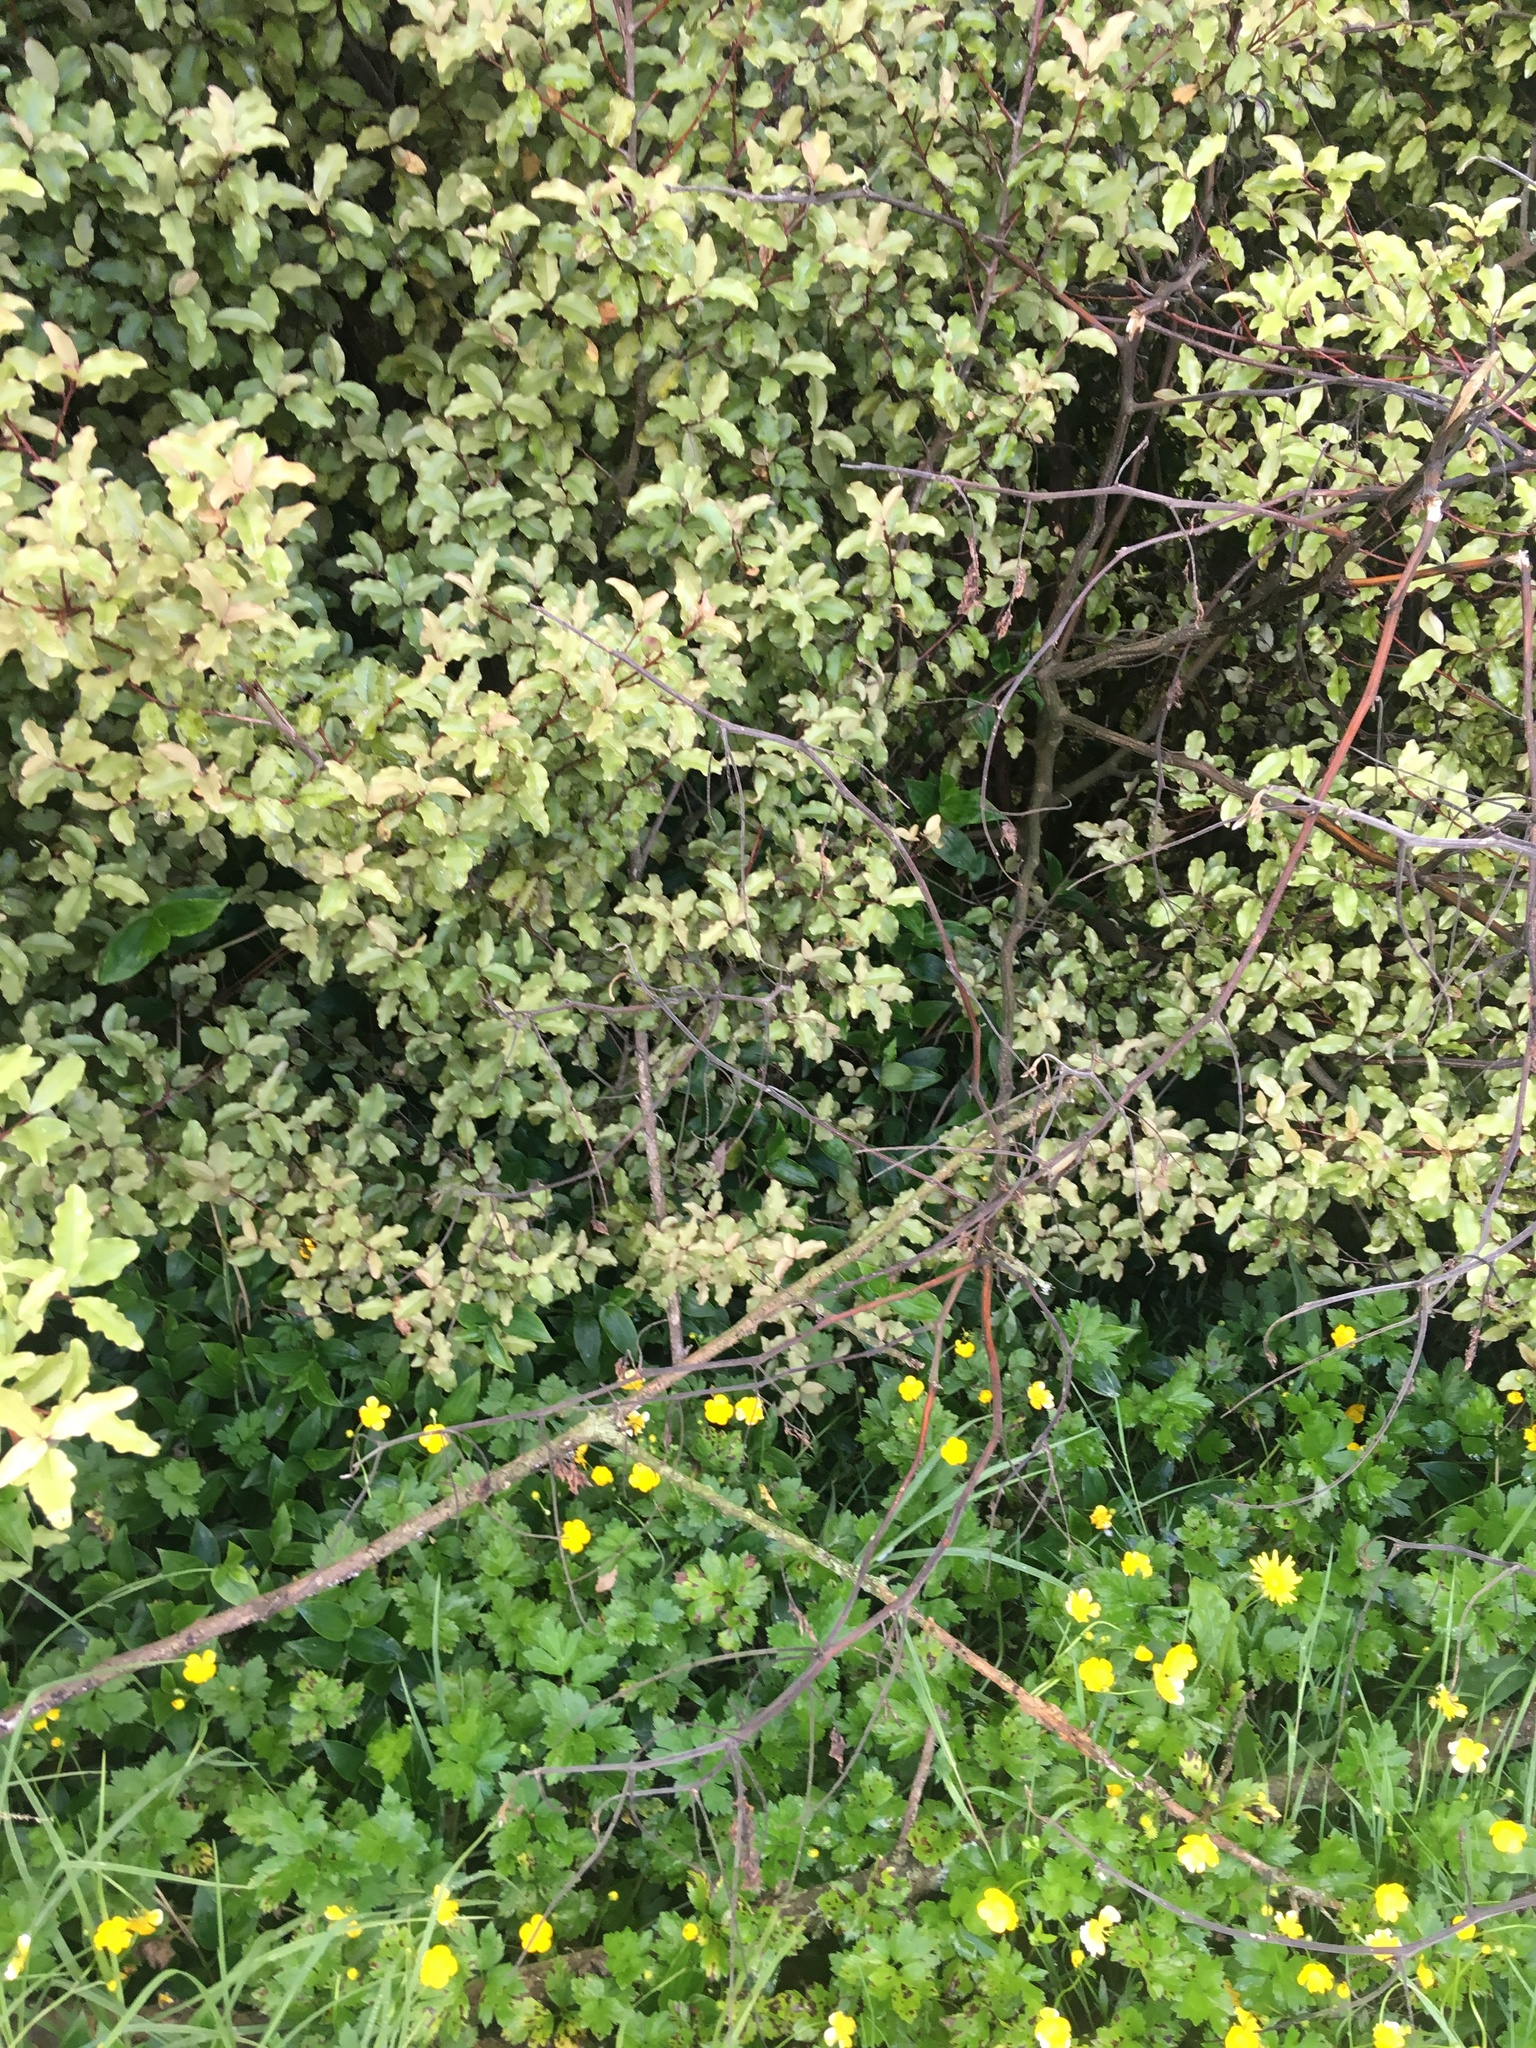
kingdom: Plantae
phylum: Tracheophyta
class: Magnoliopsida
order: Ericales
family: Primulaceae
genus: Myrsine
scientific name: Myrsine australis
